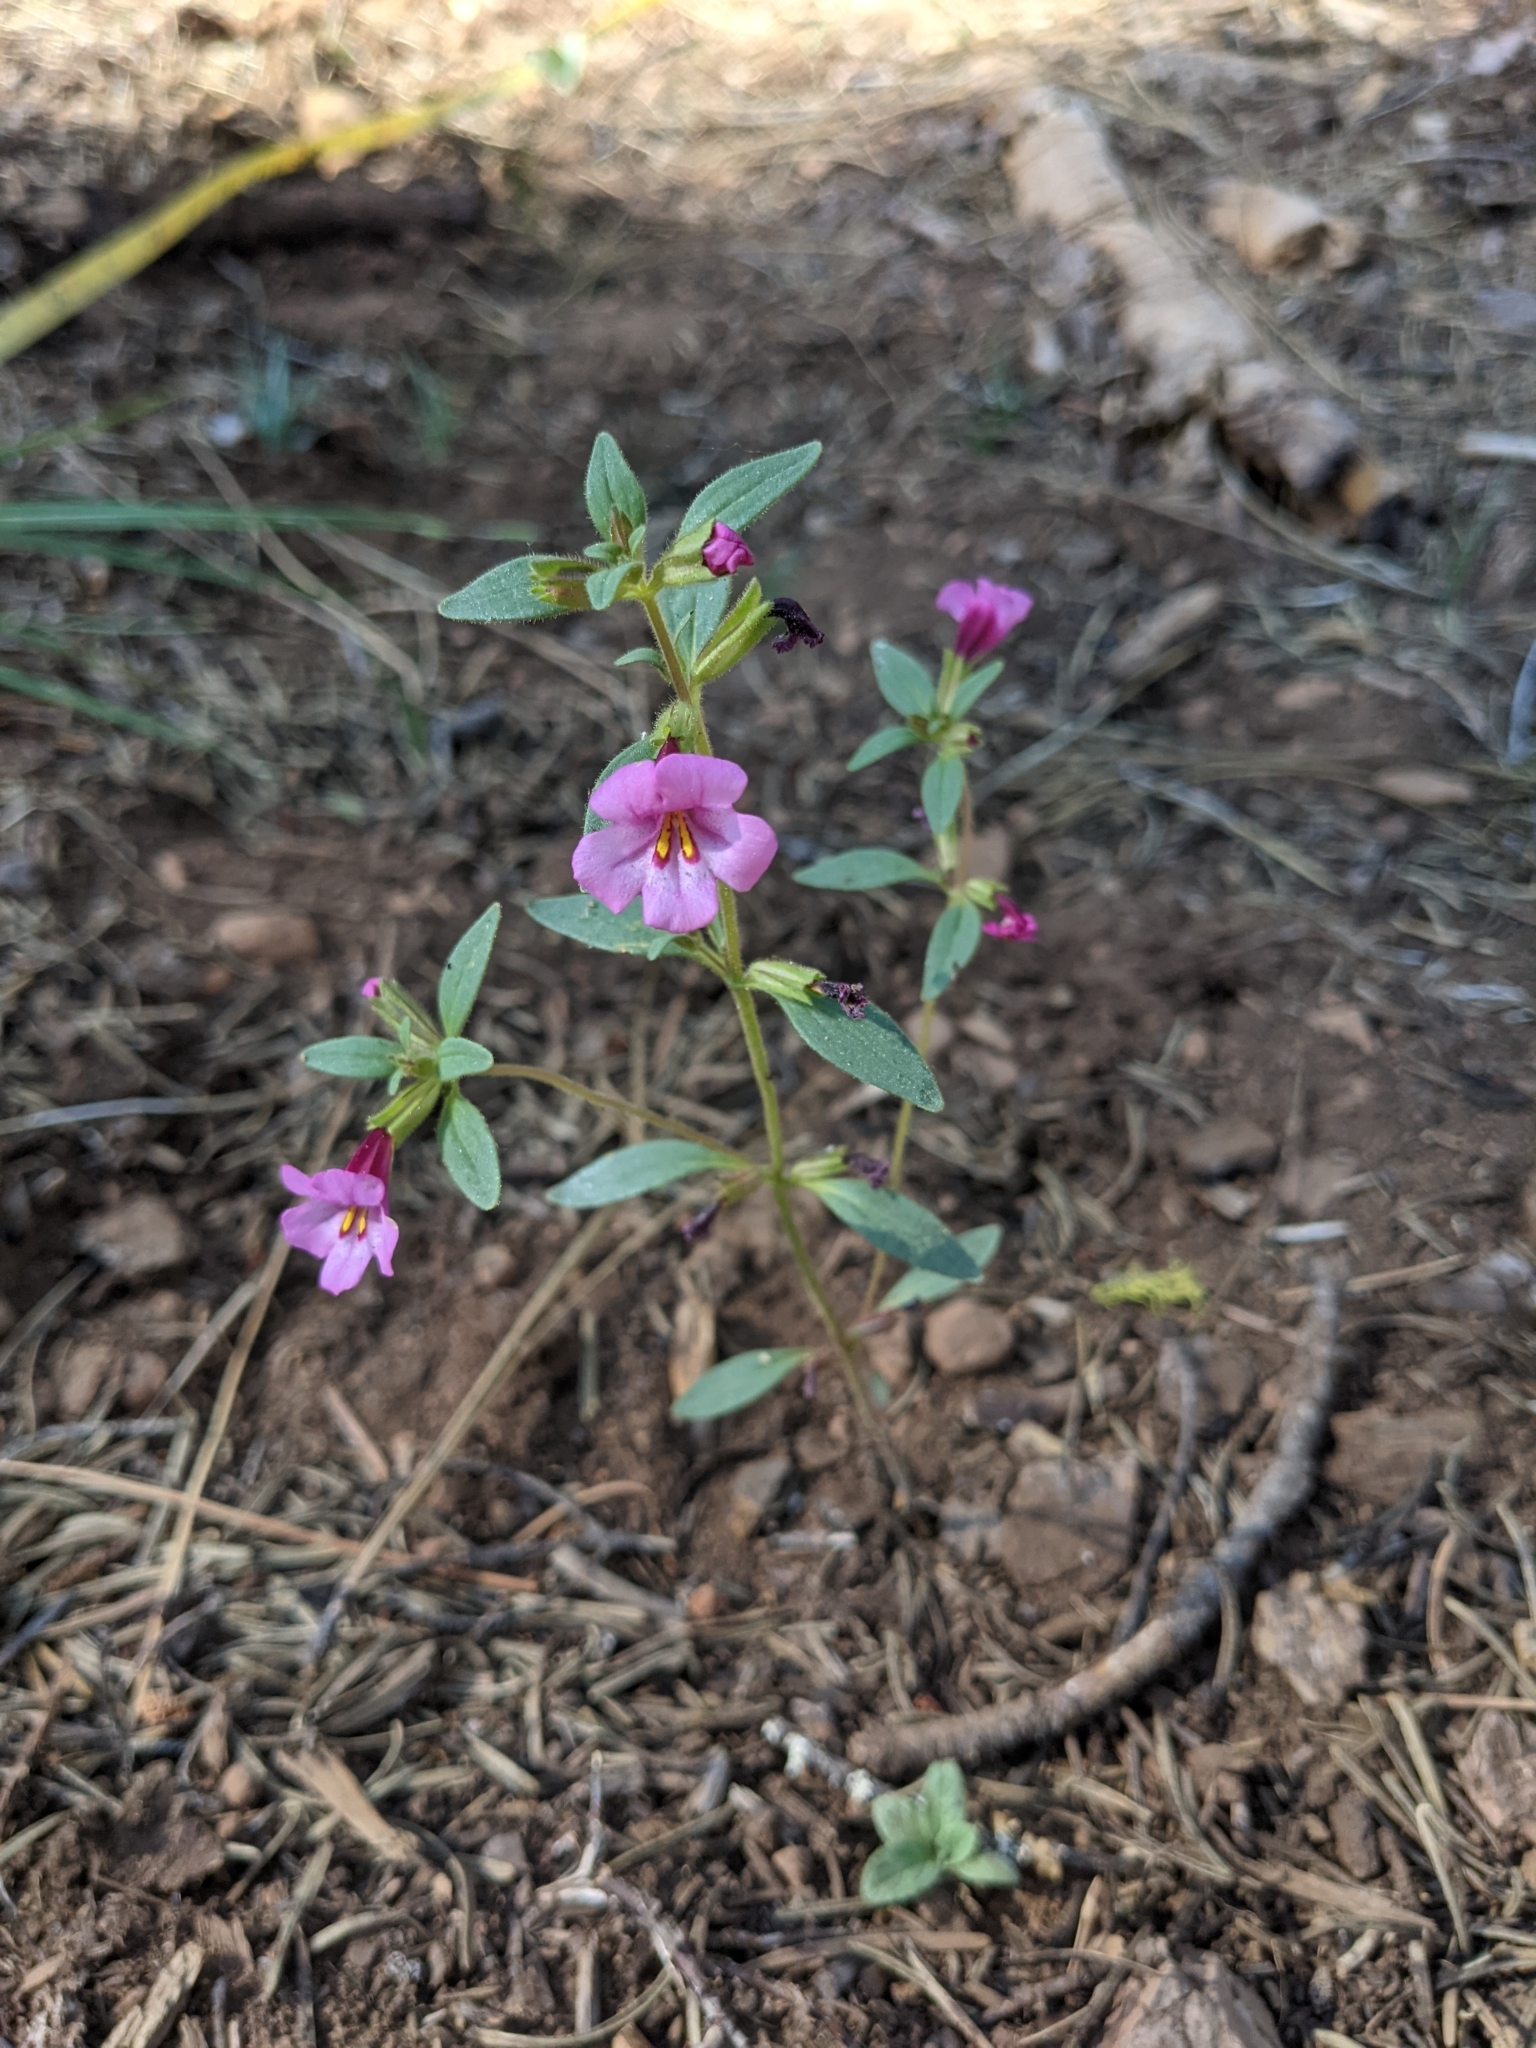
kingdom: Plantae
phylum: Tracheophyta
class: Magnoliopsida
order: Lamiales
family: Phrymaceae
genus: Diplacus
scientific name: Diplacus torreyi
